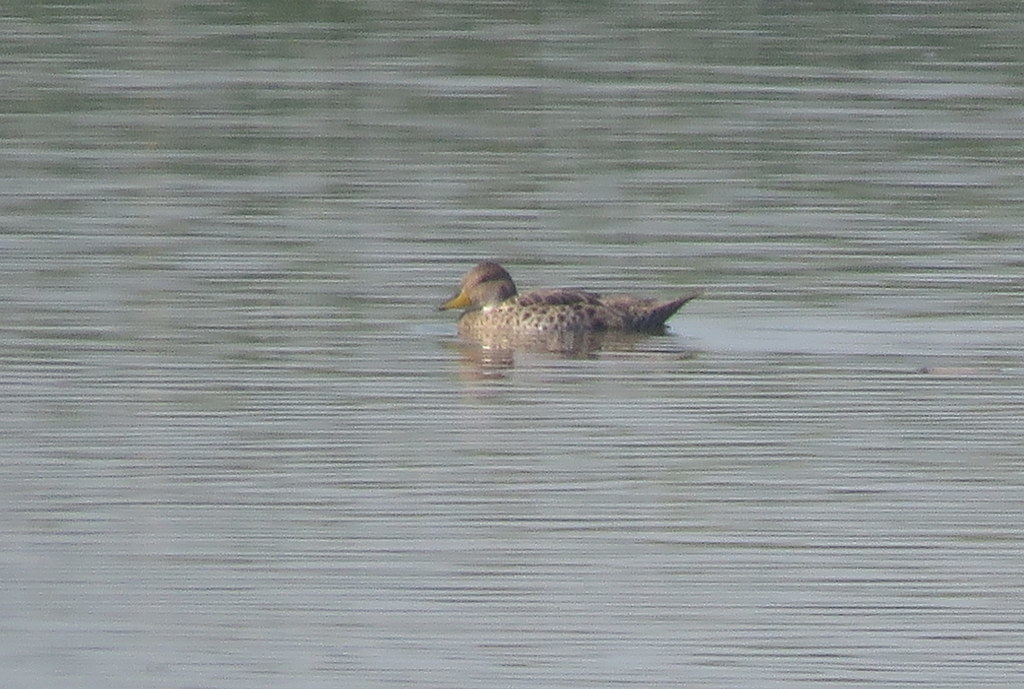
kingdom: Animalia
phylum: Chordata
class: Aves
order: Anseriformes
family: Anatidae
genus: Anas
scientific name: Anas georgica
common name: Yellow-billed pintail
